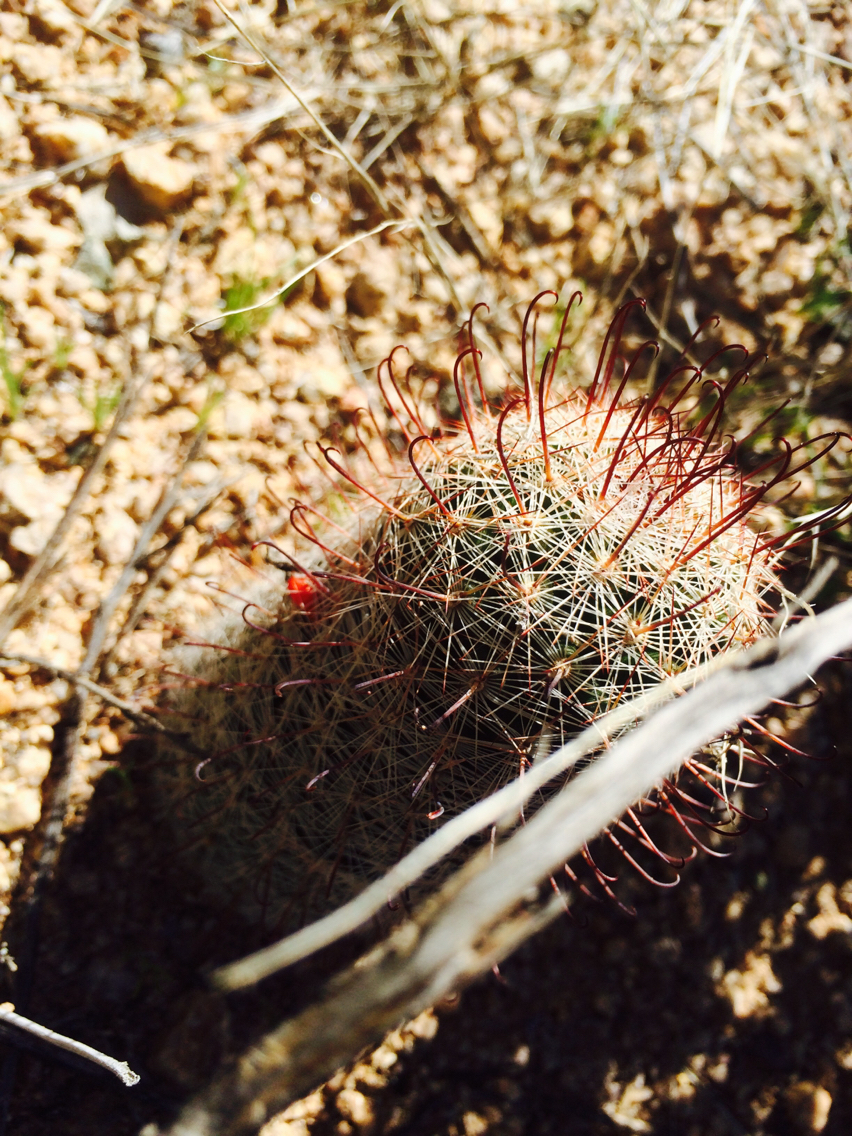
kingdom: Plantae
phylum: Tracheophyta
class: Magnoliopsida
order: Caryophyllales
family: Cactaceae
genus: Cochemiea
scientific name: Cochemiea grahamii
